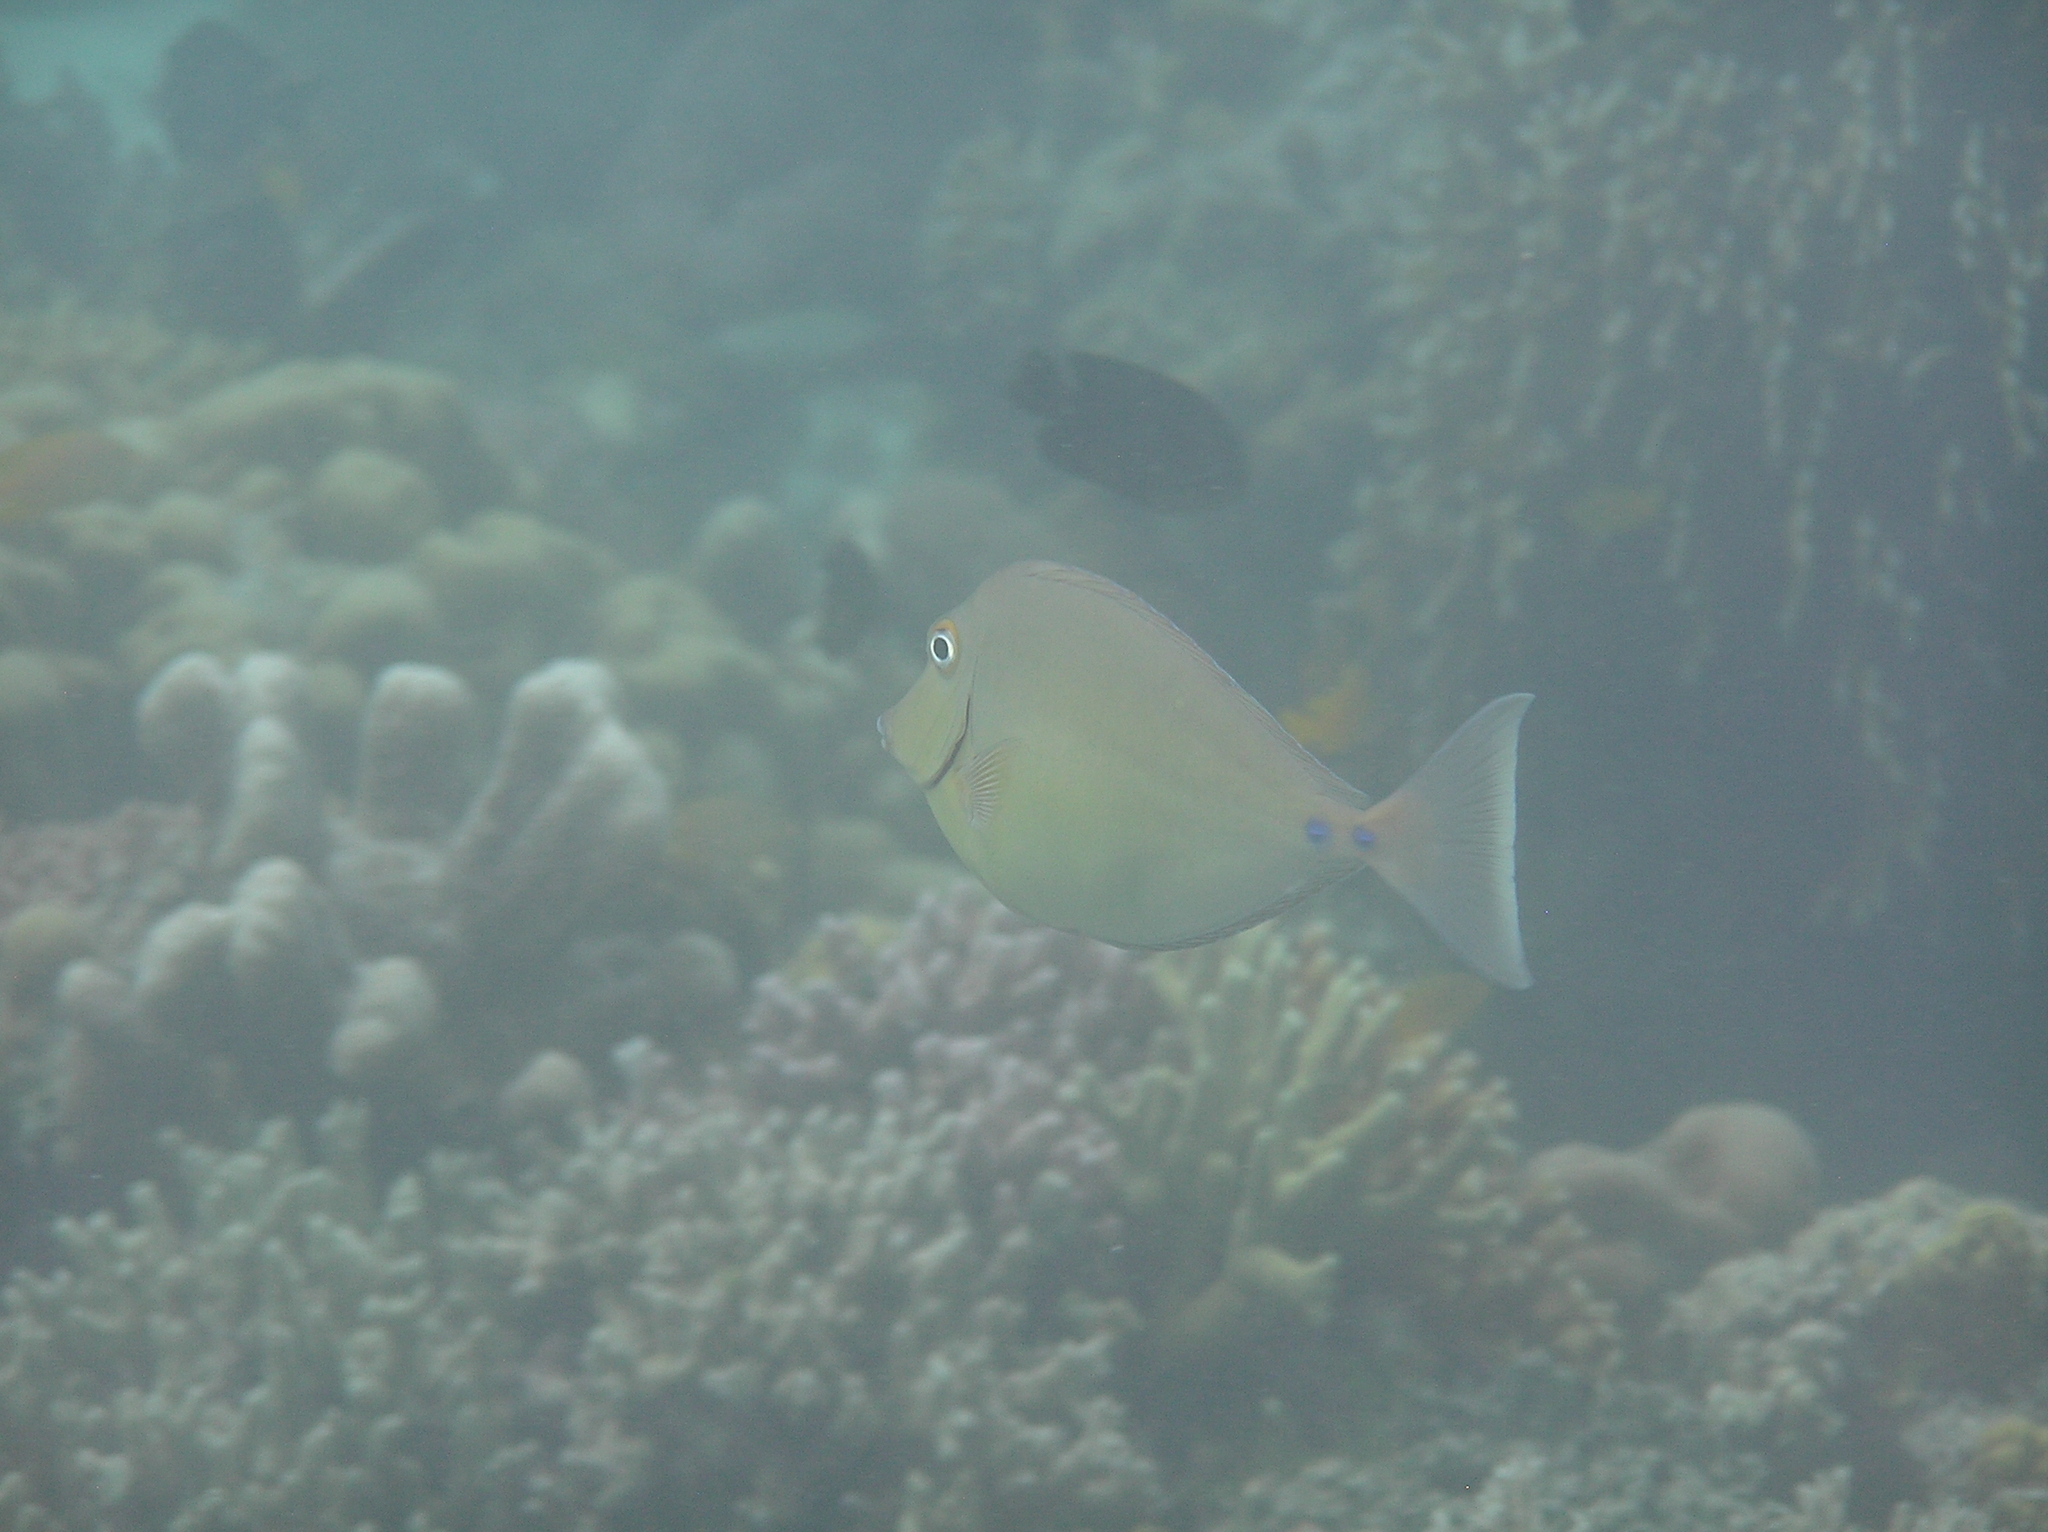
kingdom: Animalia
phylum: Chordata
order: Perciformes
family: Acanthuridae
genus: Naso
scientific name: Naso unicornis
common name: Bluespine unicornfish
